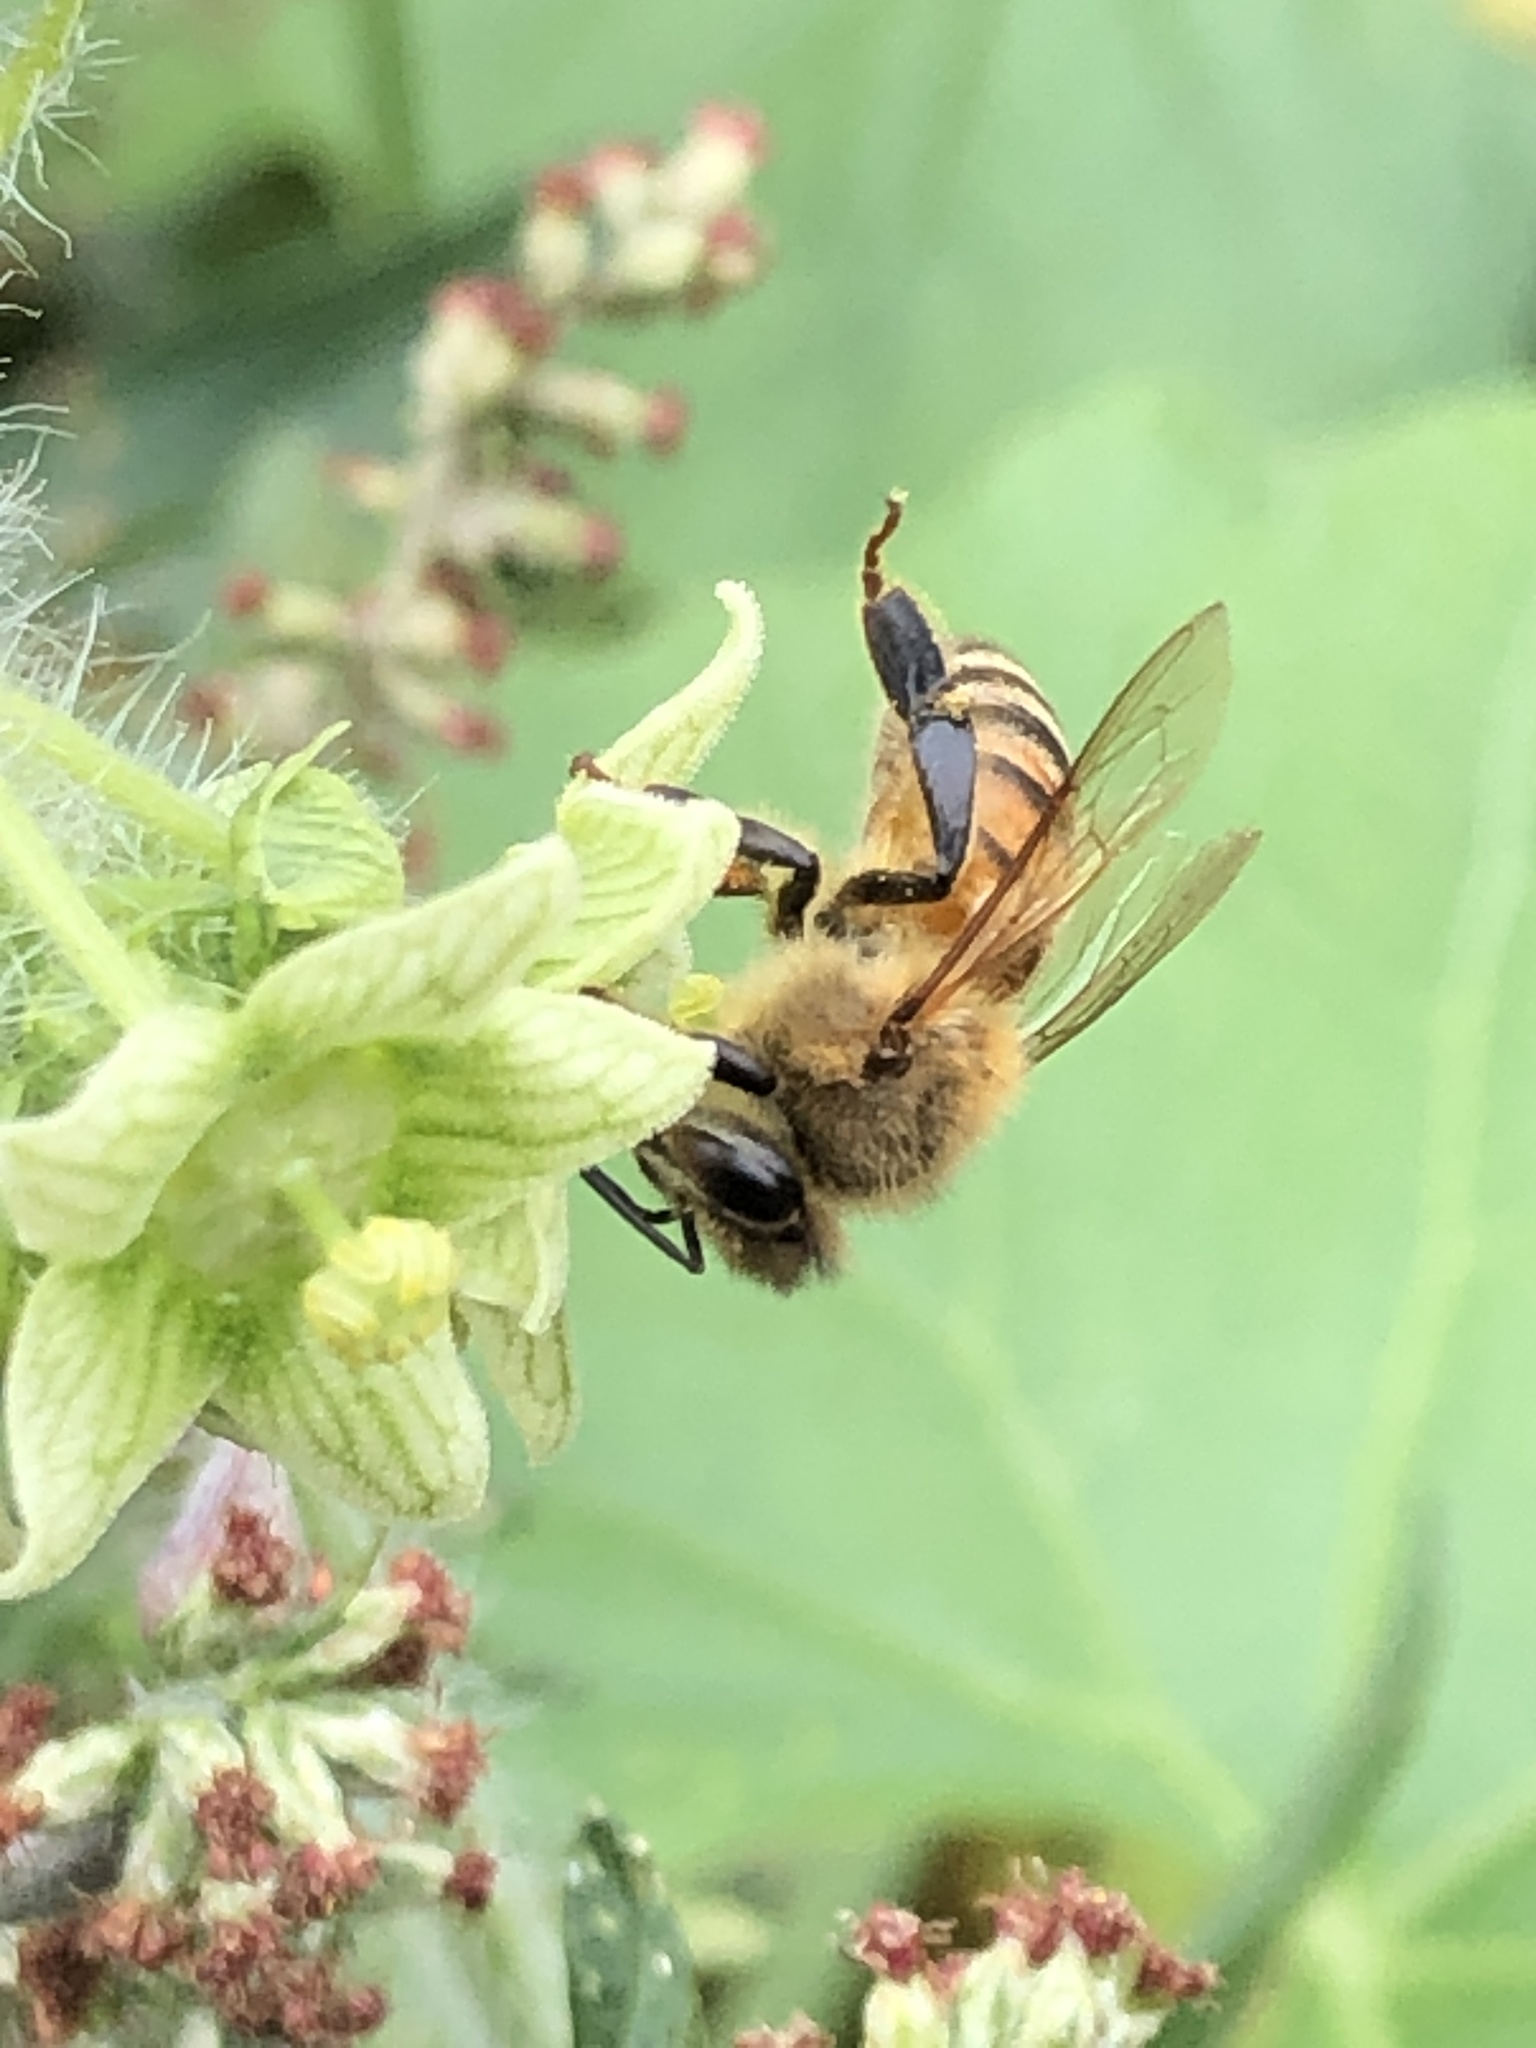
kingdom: Animalia
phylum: Arthropoda
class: Insecta
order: Hymenoptera
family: Apidae
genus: Apis
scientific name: Apis mellifera
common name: Honey bee
